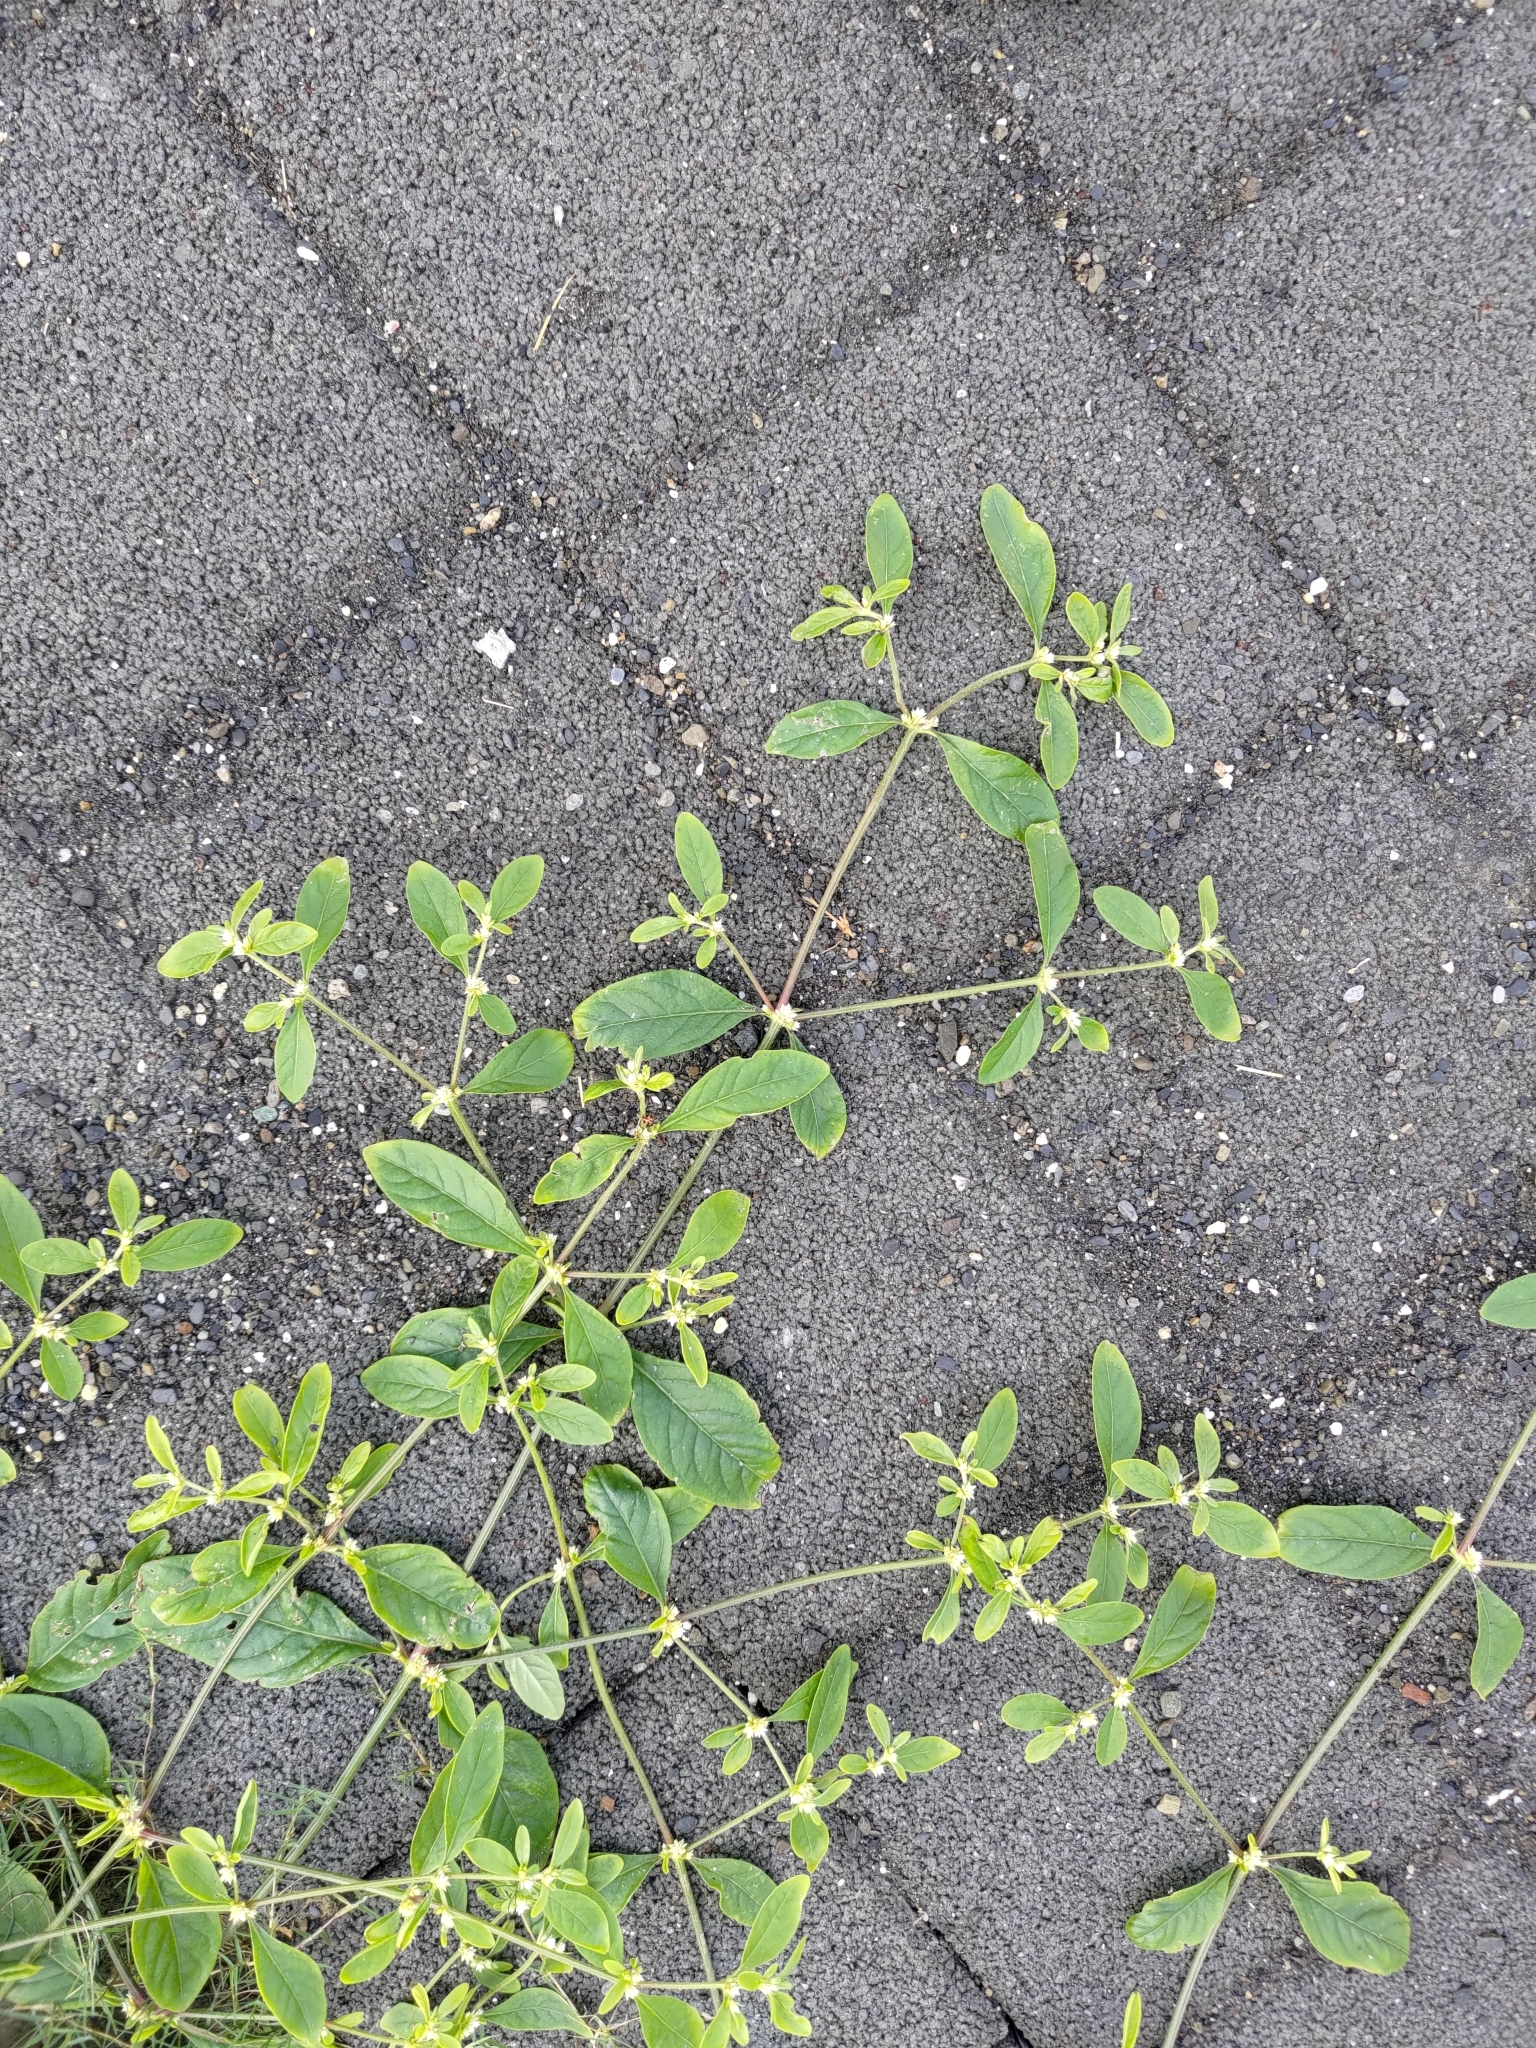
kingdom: Plantae
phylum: Tracheophyta
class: Magnoliopsida
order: Caryophyllales
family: Amaranthaceae
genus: Alternanthera
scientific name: Alternanthera ficoidea
